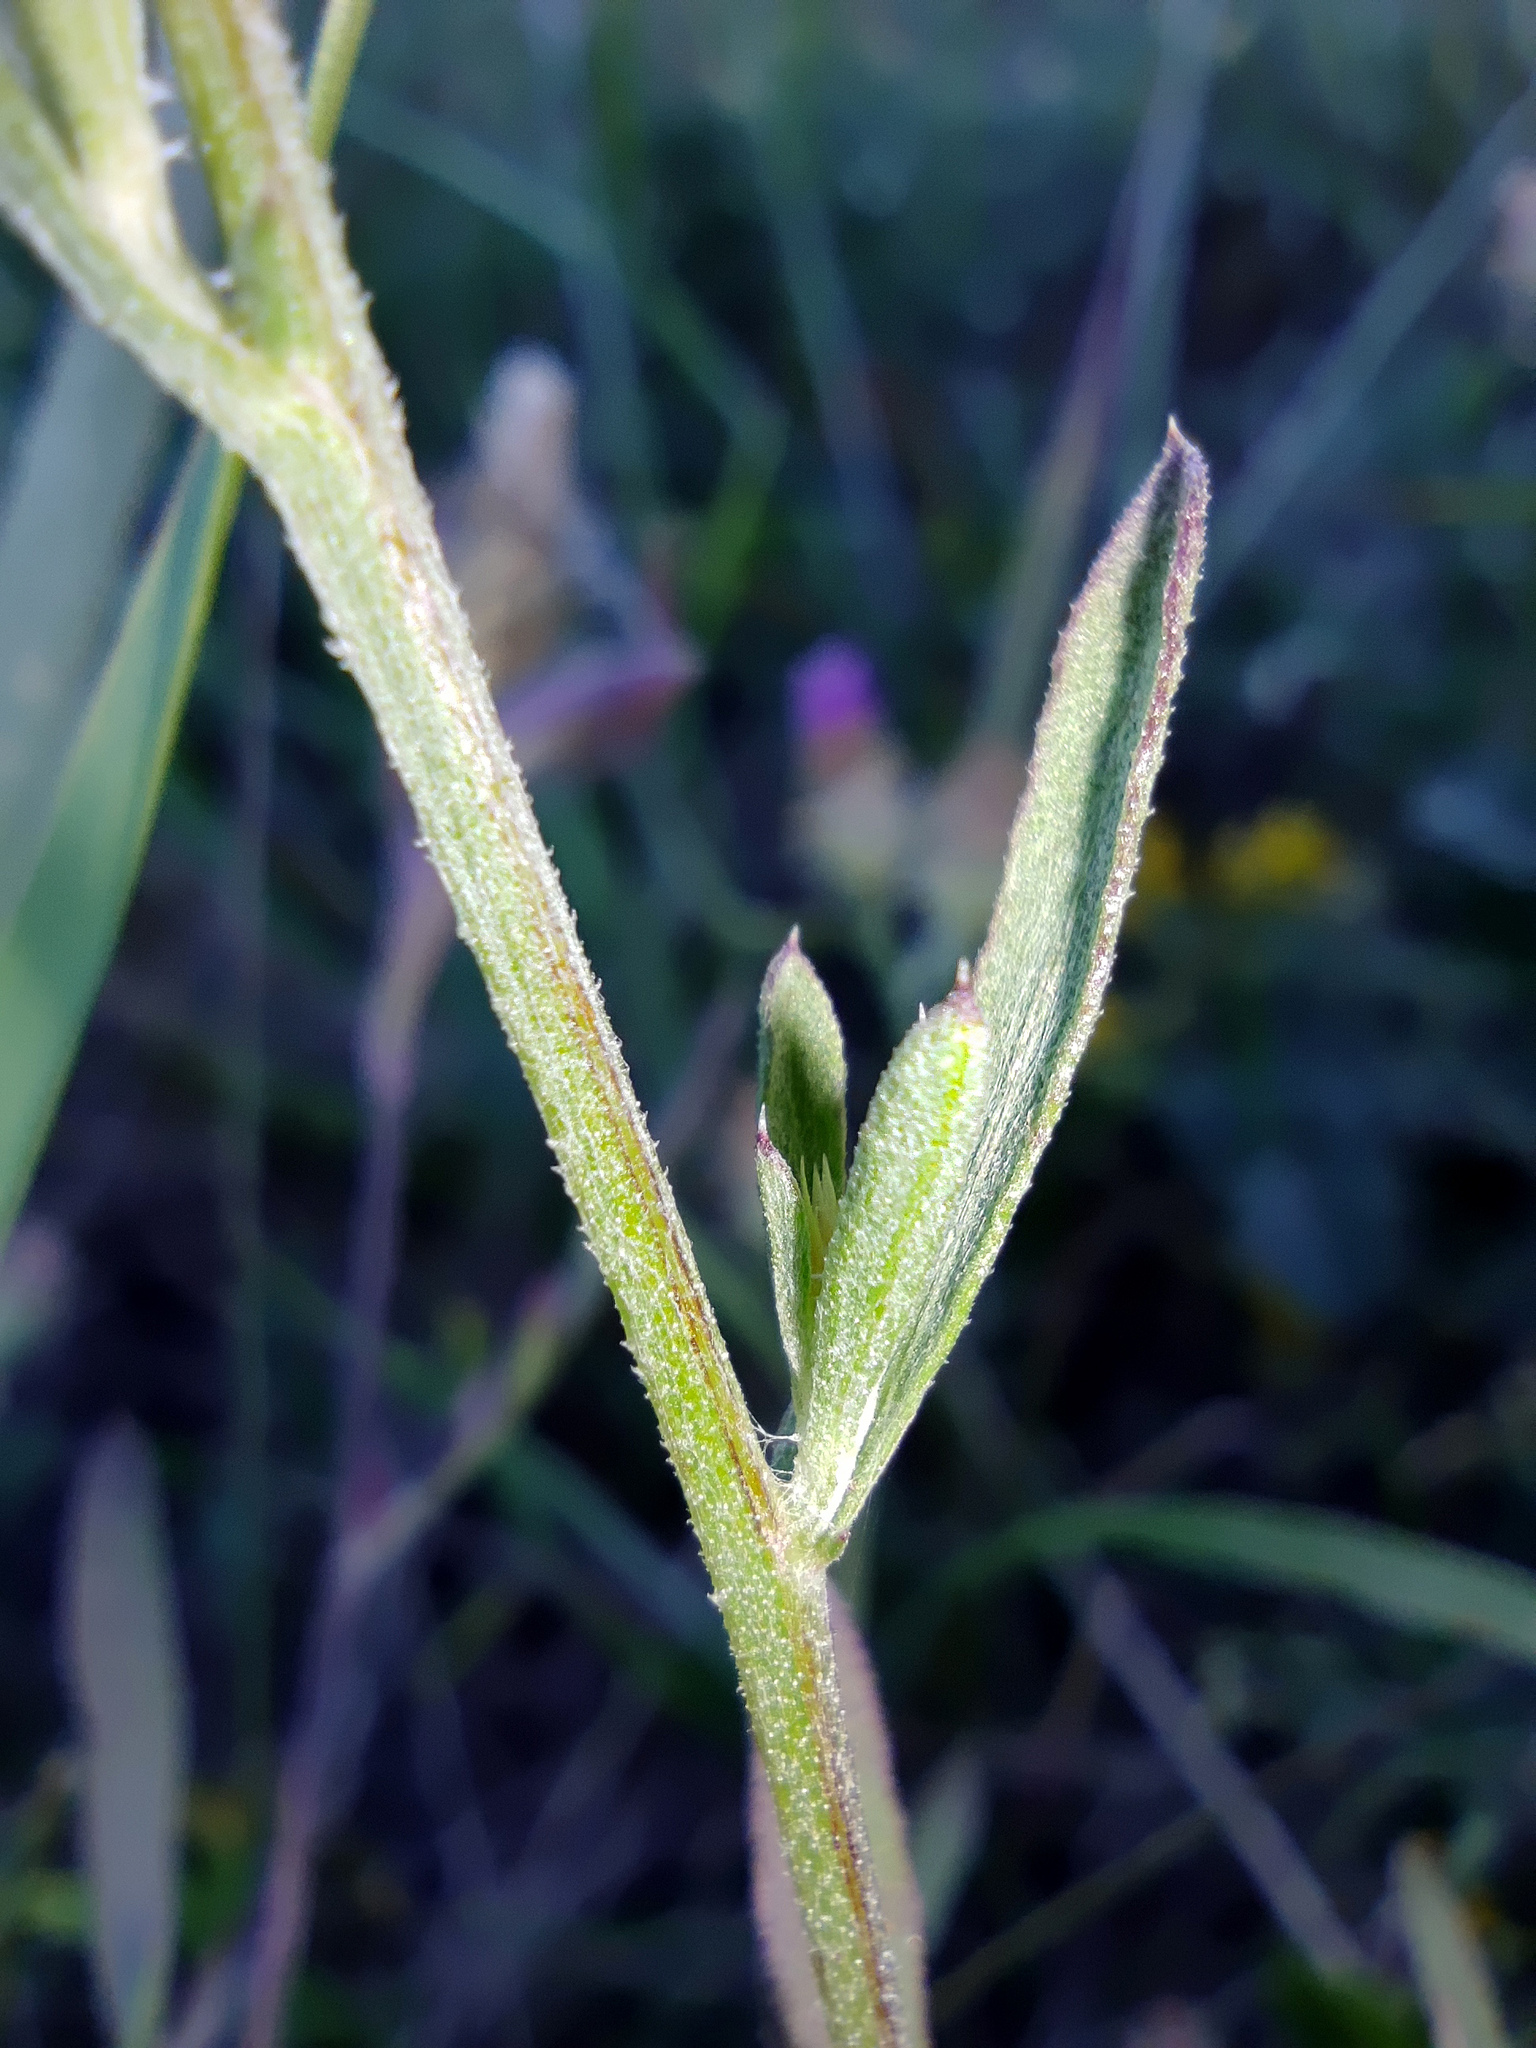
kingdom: Plantae
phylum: Tracheophyta
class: Magnoliopsida
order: Asterales
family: Asteraceae
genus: Centaurea
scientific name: Centaurea diffusa
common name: Diffuse knapweed
